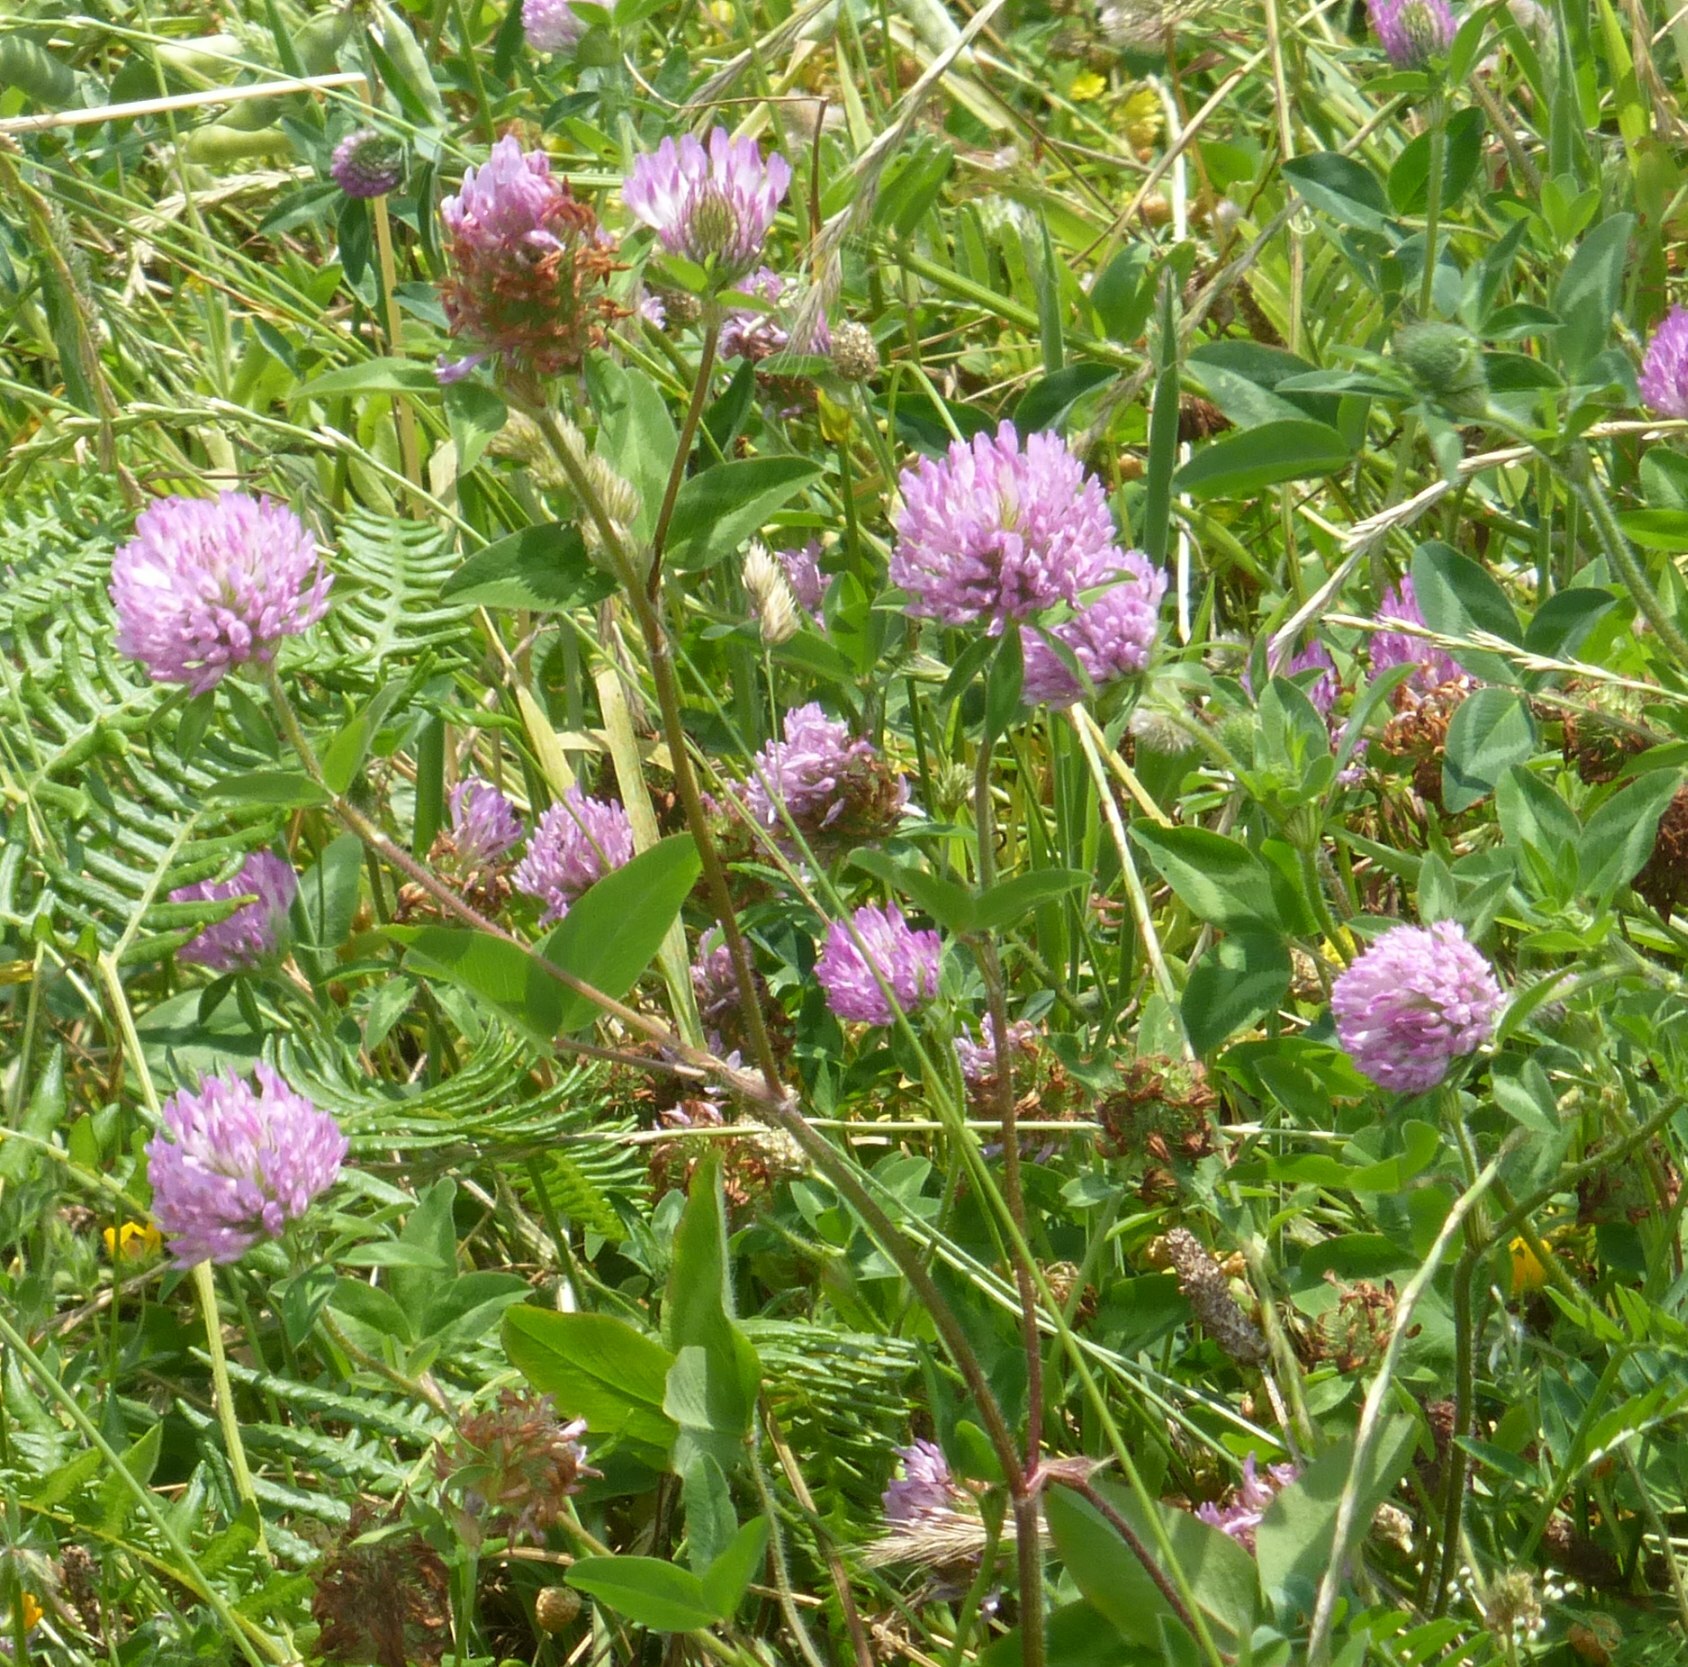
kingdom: Plantae
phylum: Tracheophyta
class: Magnoliopsida
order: Fabales
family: Fabaceae
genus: Trifolium
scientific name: Trifolium pratense
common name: Red clover
